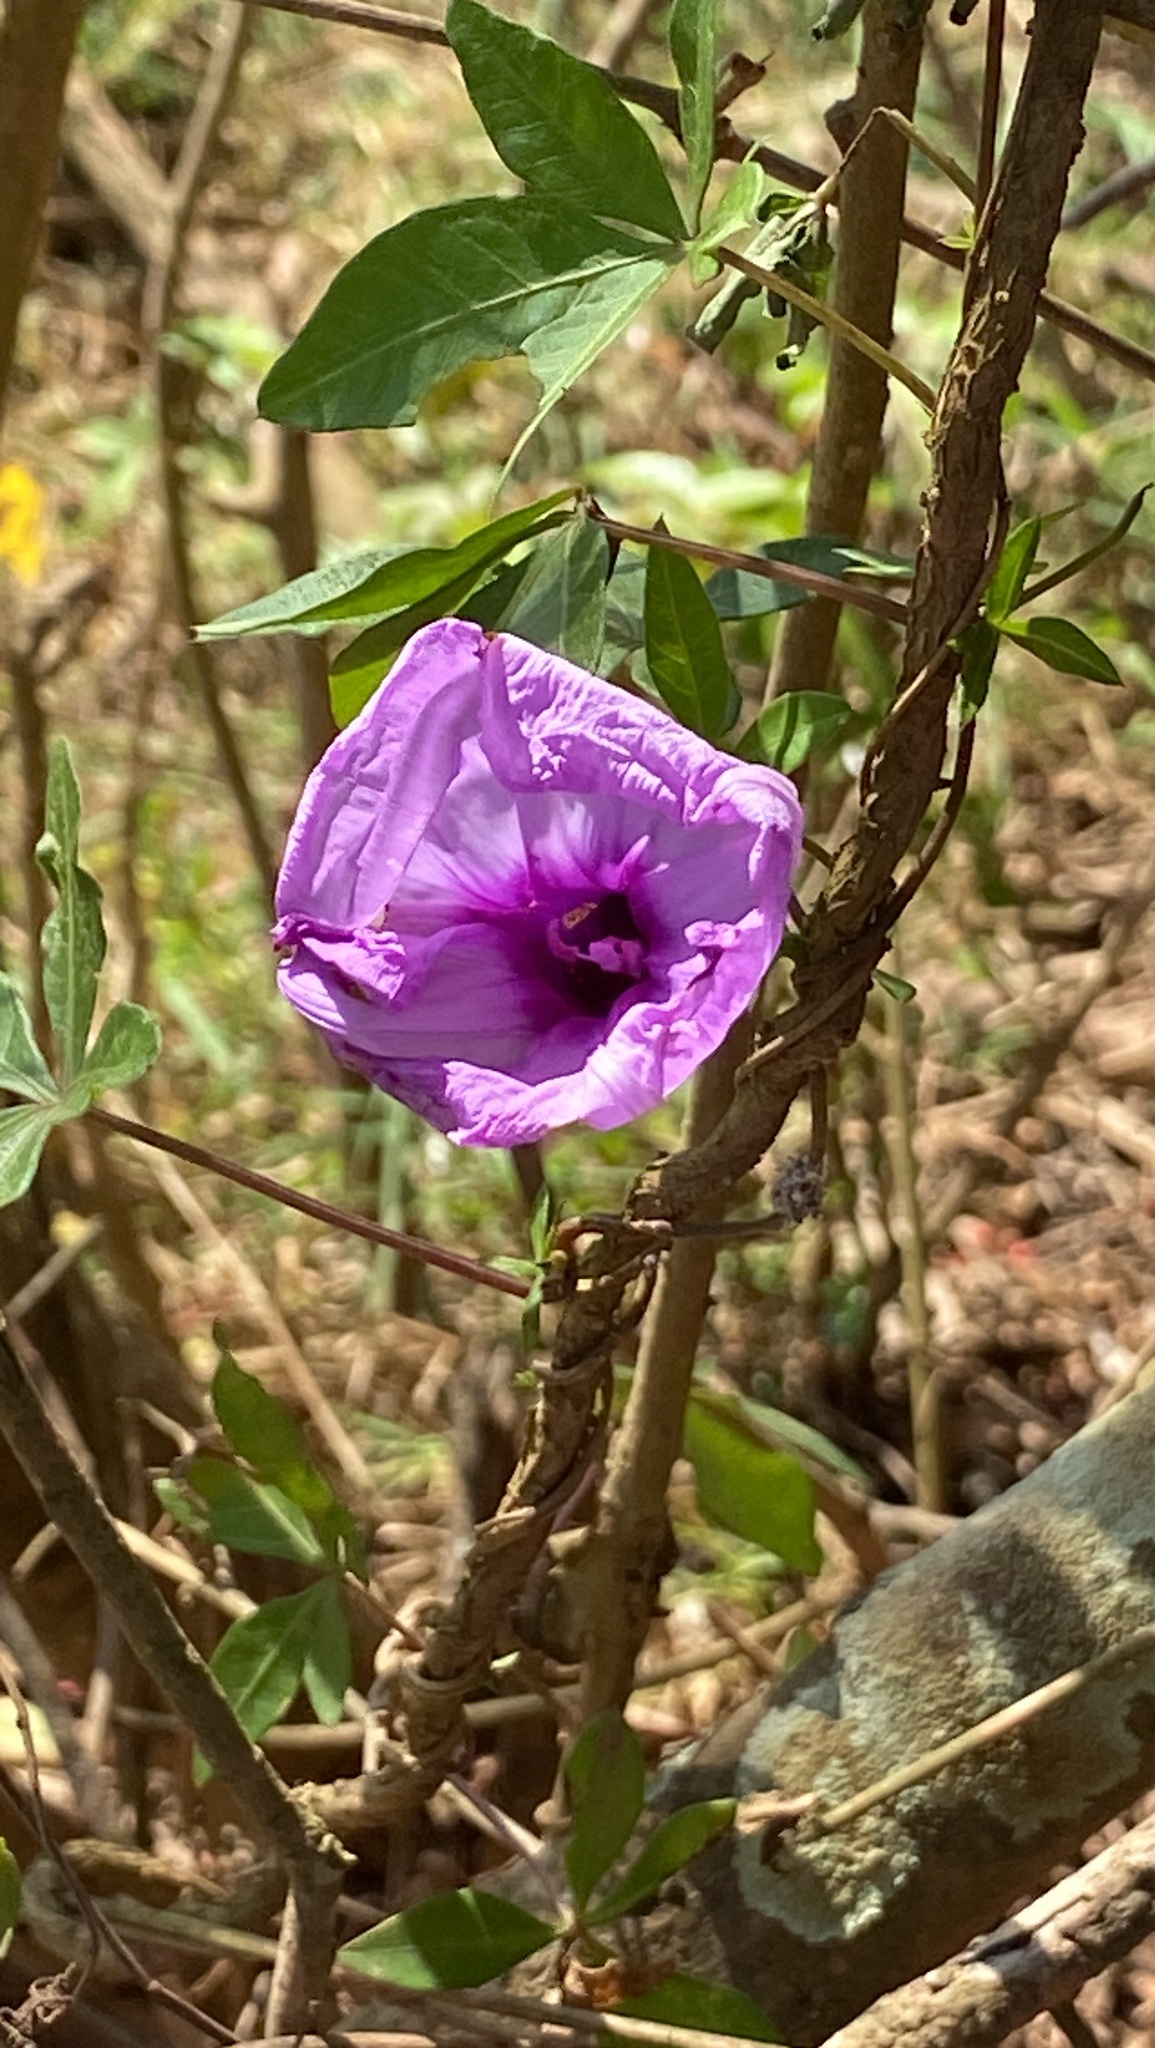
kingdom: Plantae
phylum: Tracheophyta
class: Magnoliopsida
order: Solanales
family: Convolvulaceae
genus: Ipomoea
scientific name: Ipomoea cairica
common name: Mile a minute vine
